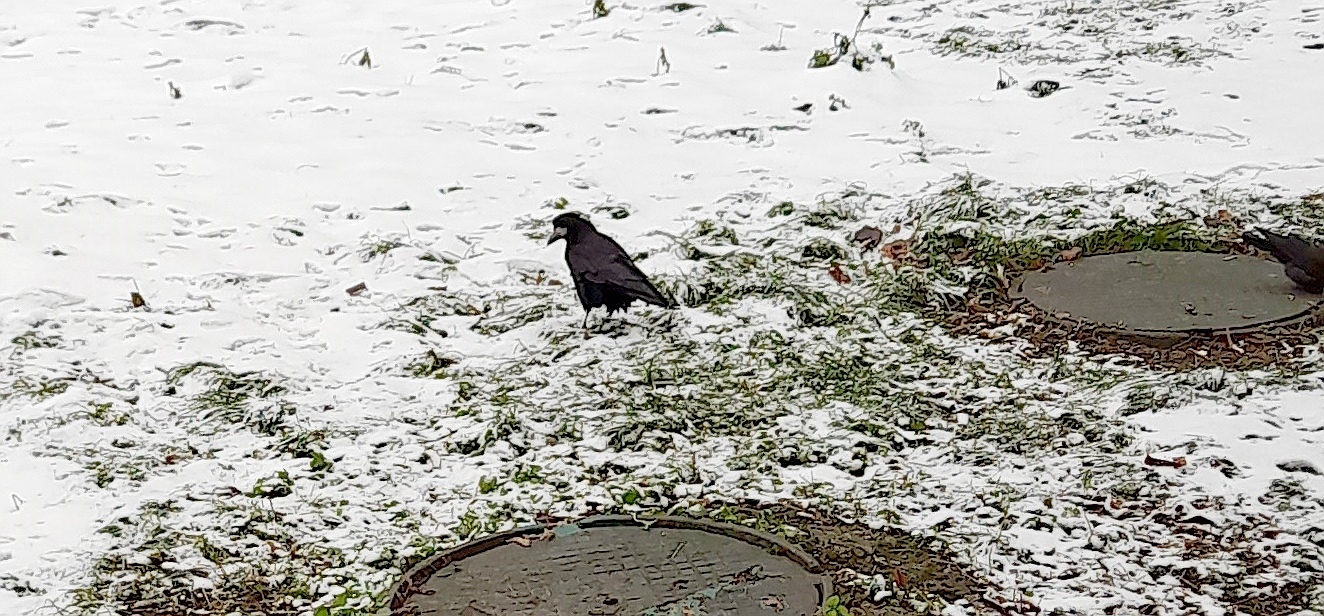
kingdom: Animalia
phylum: Chordata
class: Aves
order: Passeriformes
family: Corvidae
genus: Corvus
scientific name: Corvus frugilegus
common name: Rook
